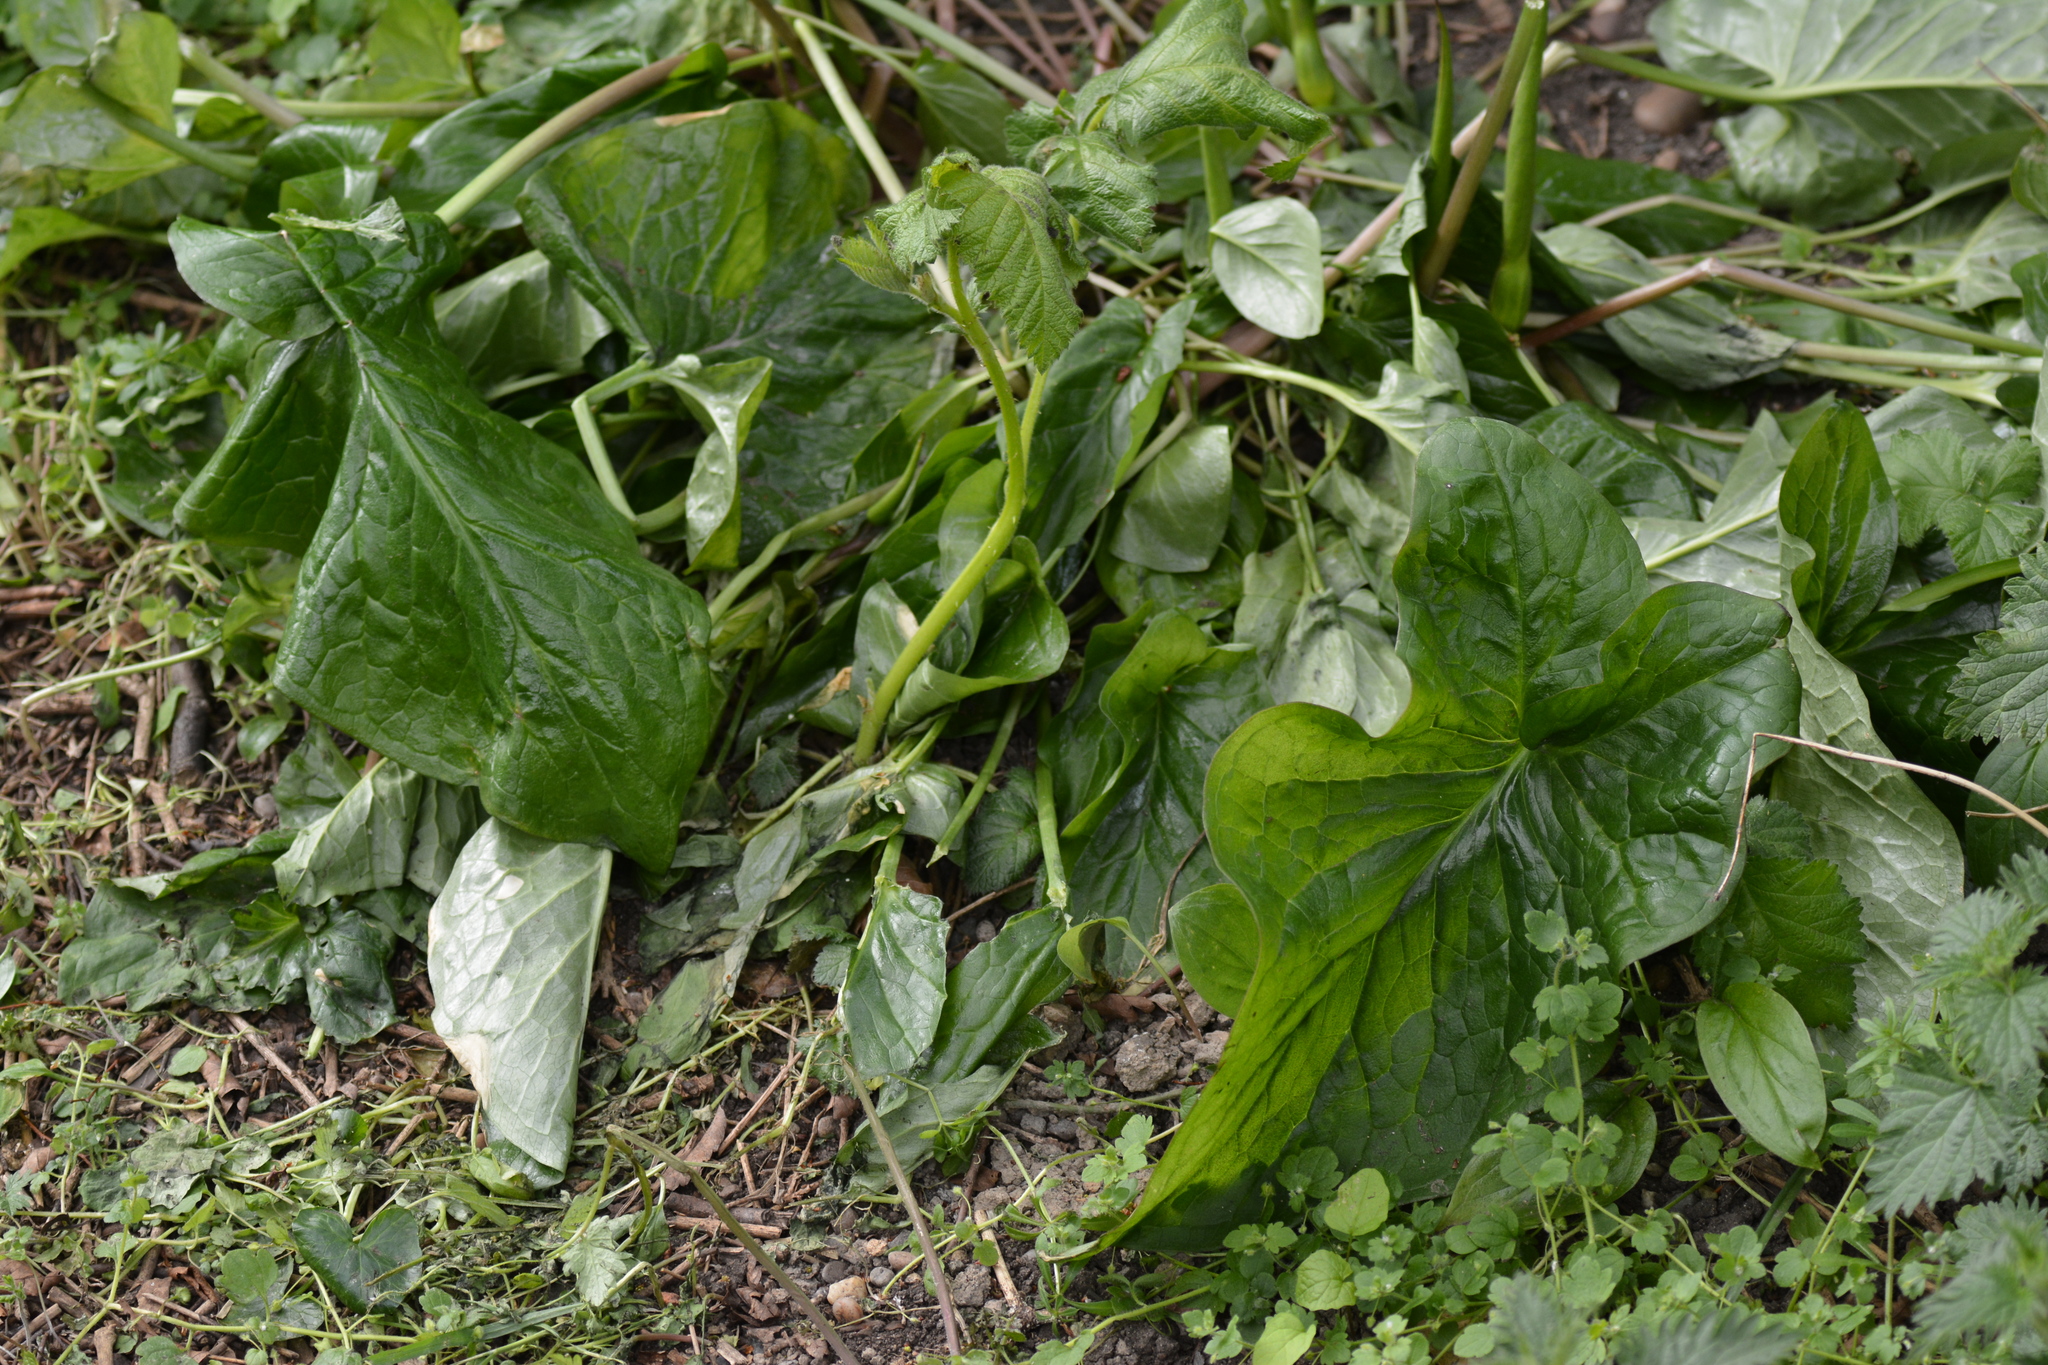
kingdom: Plantae
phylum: Tracheophyta
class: Liliopsida
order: Alismatales
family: Araceae
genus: Arum
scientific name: Arum maculatum
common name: Lords-and-ladies
